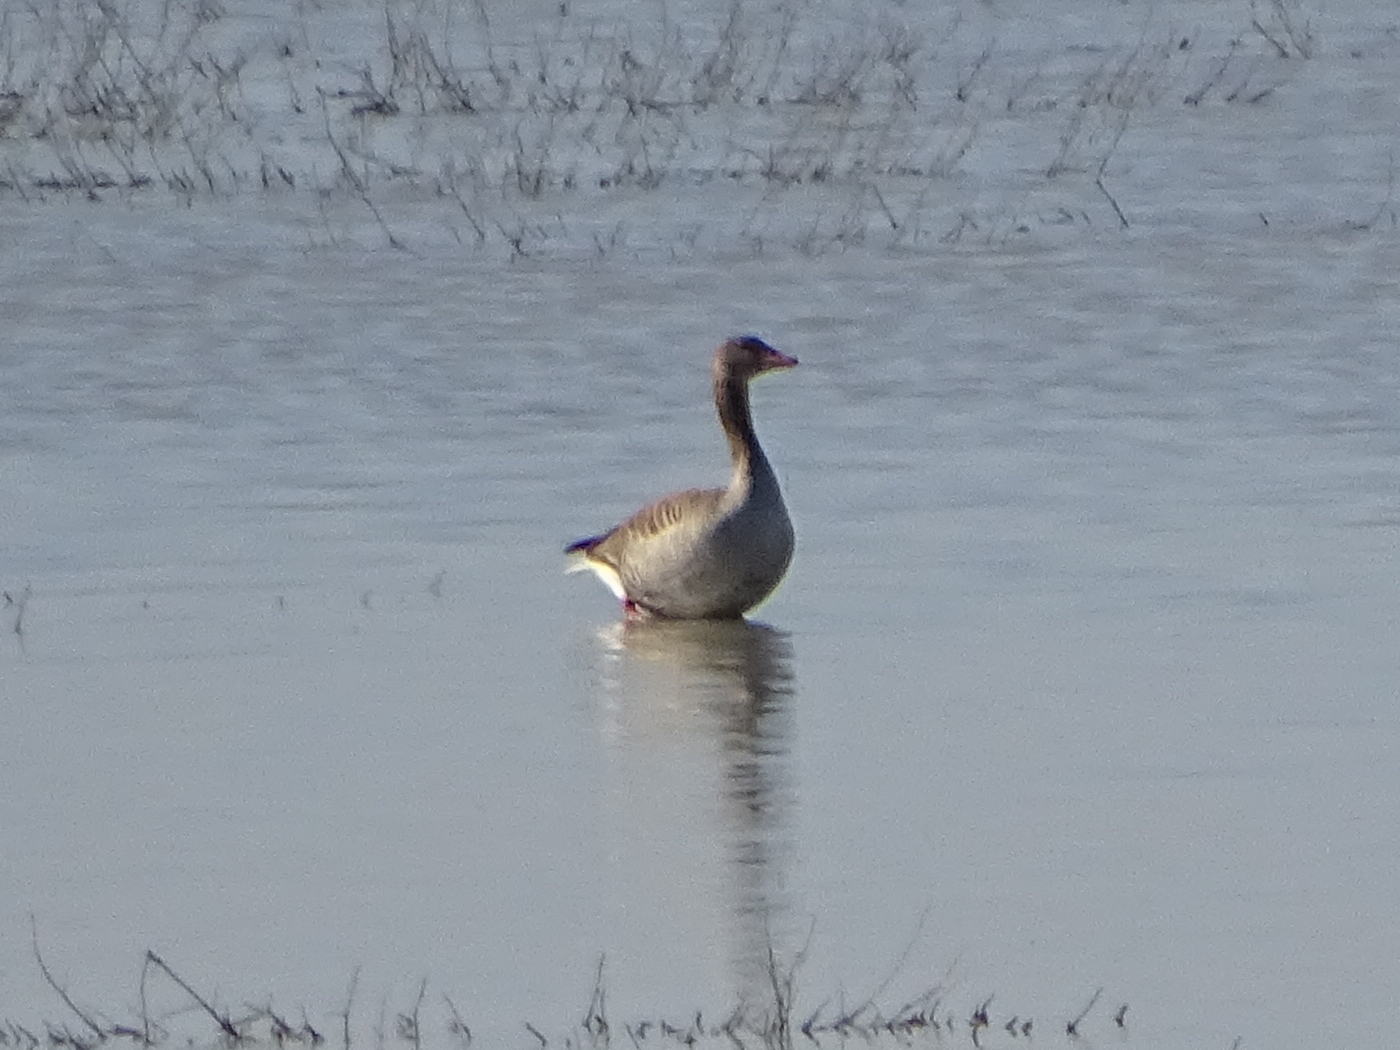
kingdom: Animalia
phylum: Chordata
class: Aves
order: Anseriformes
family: Anatidae
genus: Anser
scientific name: Anser anser
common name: Greylag goose
